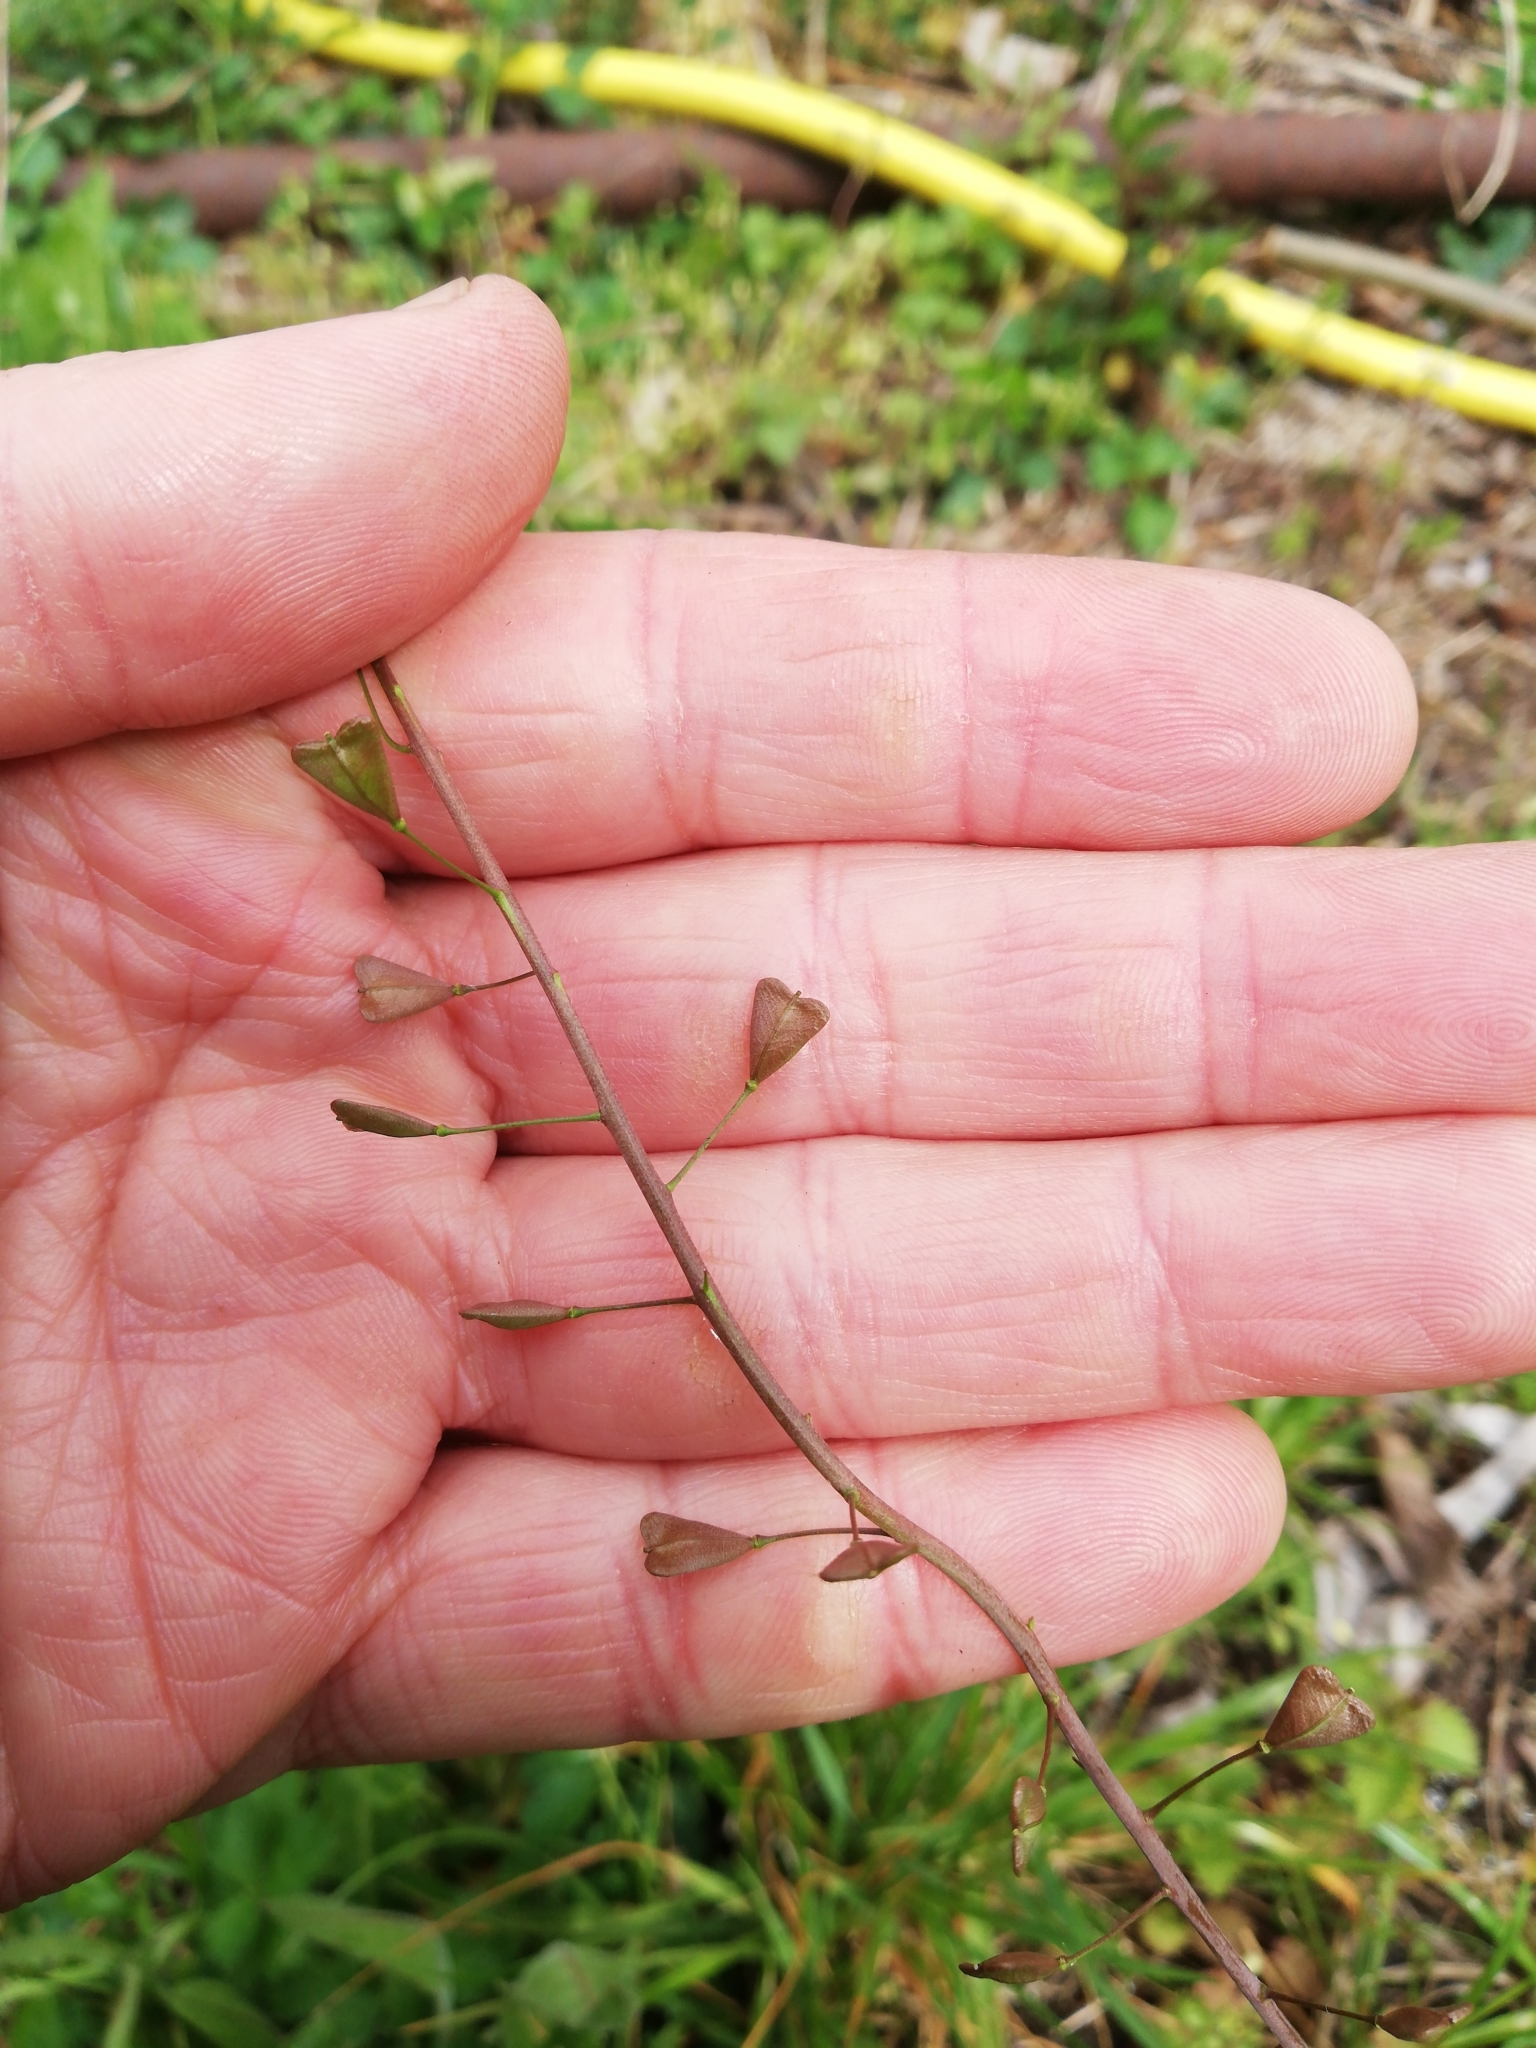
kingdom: Plantae
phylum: Tracheophyta
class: Magnoliopsida
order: Brassicales
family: Brassicaceae
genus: Capsella
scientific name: Capsella bursa-pastoris
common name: Shepherd's purse
